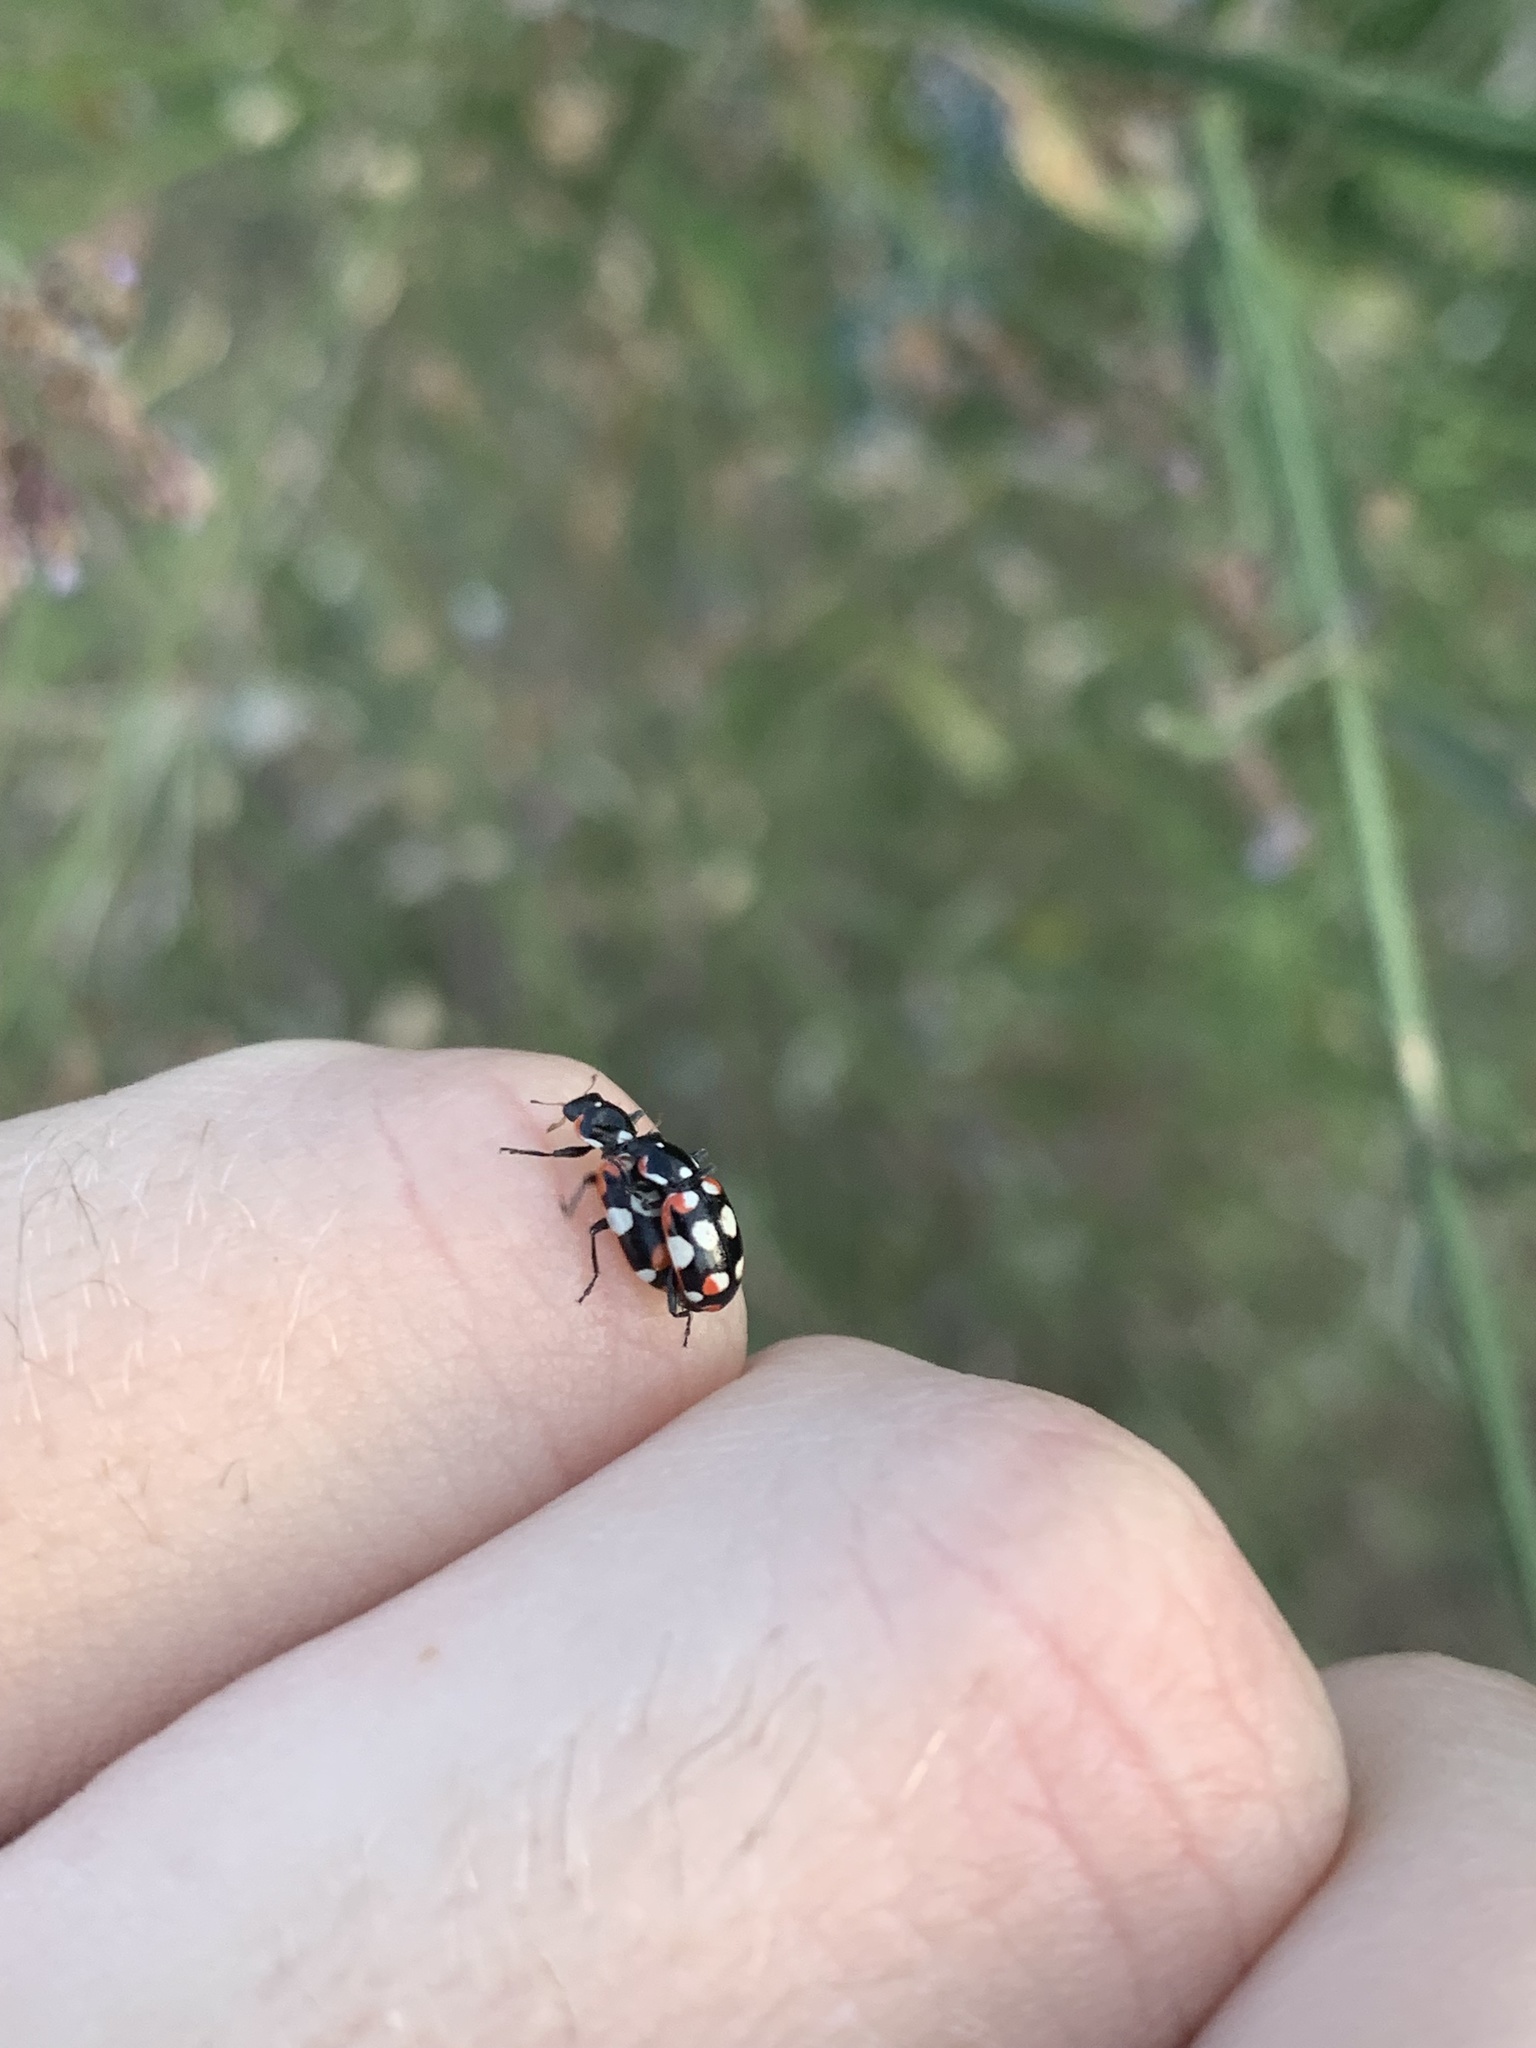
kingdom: Animalia
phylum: Arthropoda
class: Insecta
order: Coleoptera
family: Coccinellidae
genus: Eriopis
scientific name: Eriopis connexa
